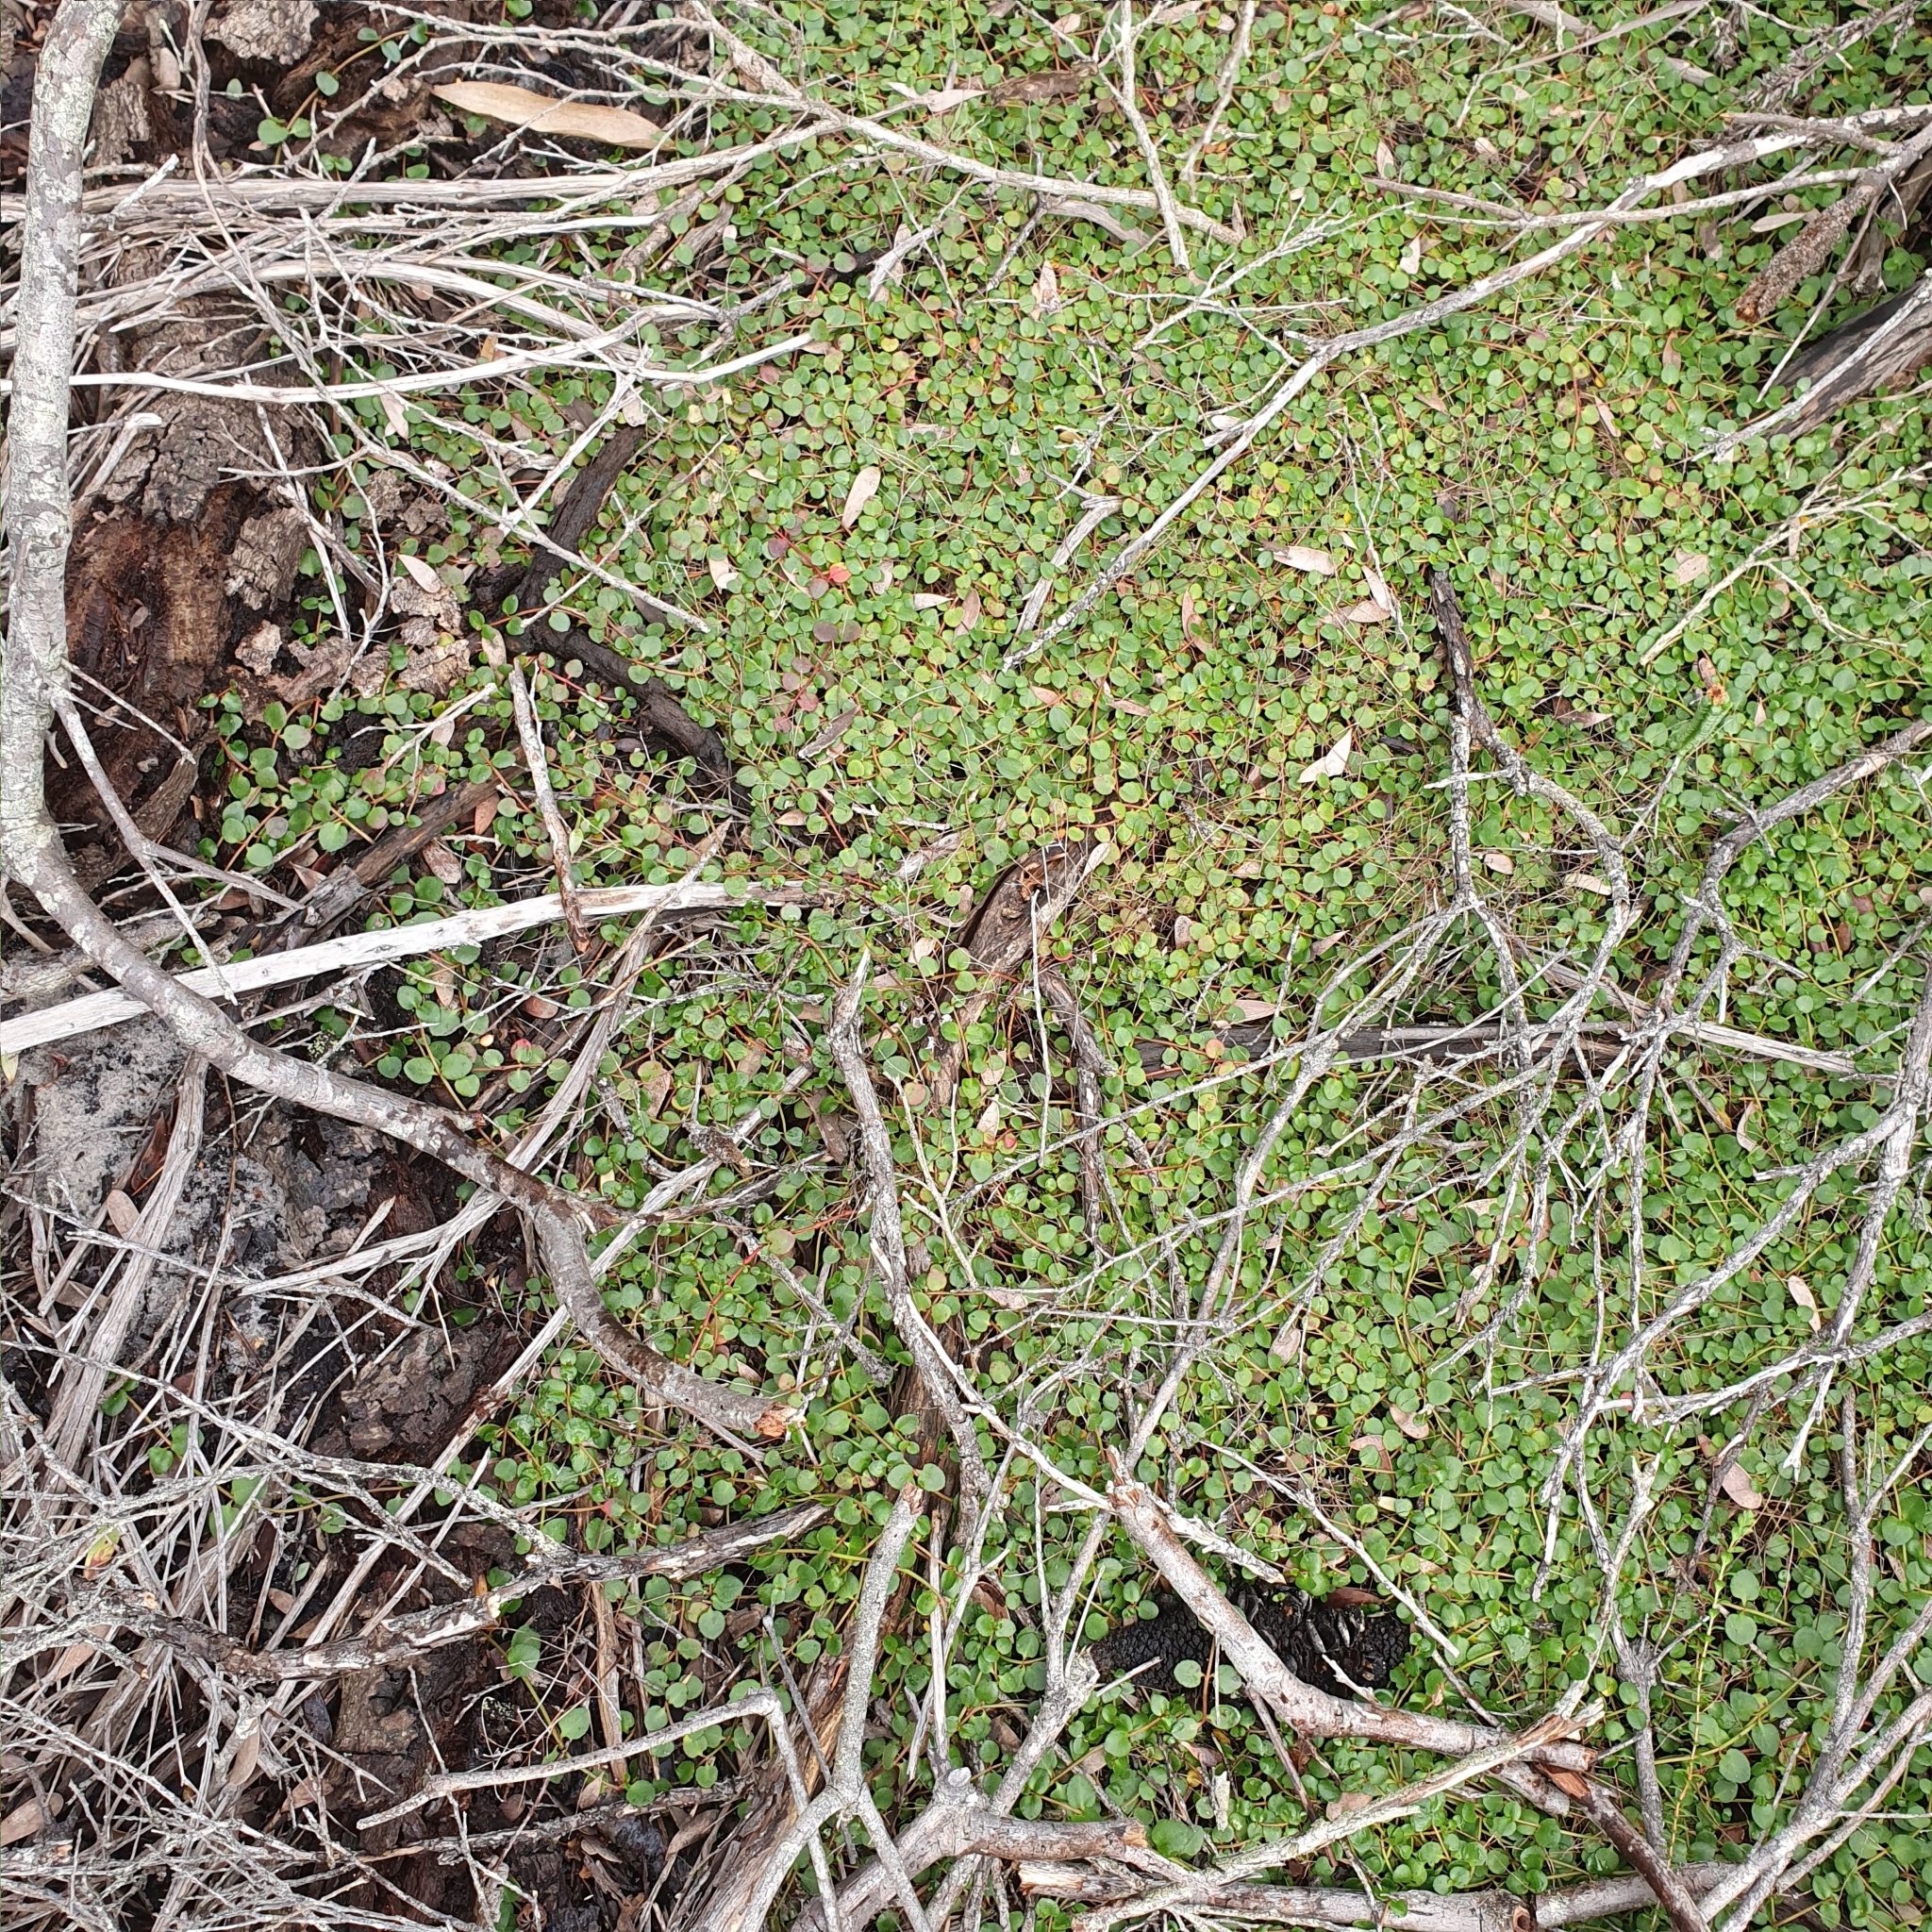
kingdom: Plantae
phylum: Tracheophyta
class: Magnoliopsida
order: Saxifragales
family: Haloragaceae
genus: Gonocarpus
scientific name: Gonocarpus micranthus
